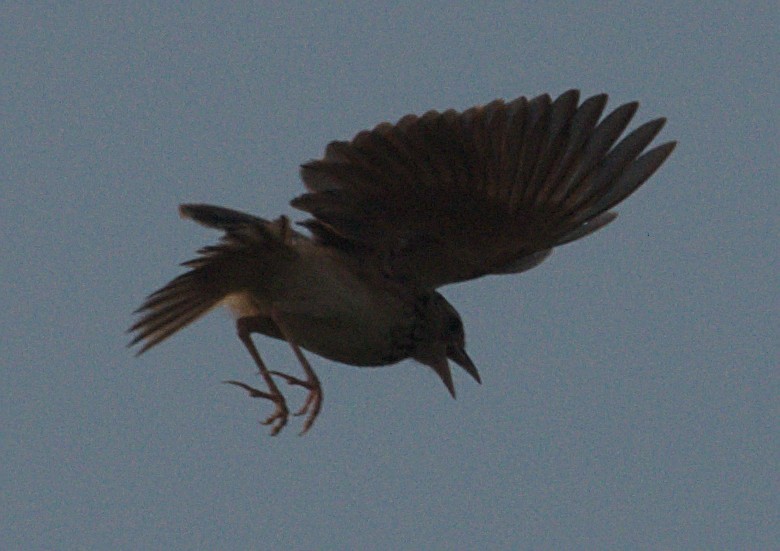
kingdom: Animalia
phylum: Chordata
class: Aves
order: Passeriformes
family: Alaudidae
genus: Mirafra
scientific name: Mirafra affinis
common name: Jerdon's bushlark
